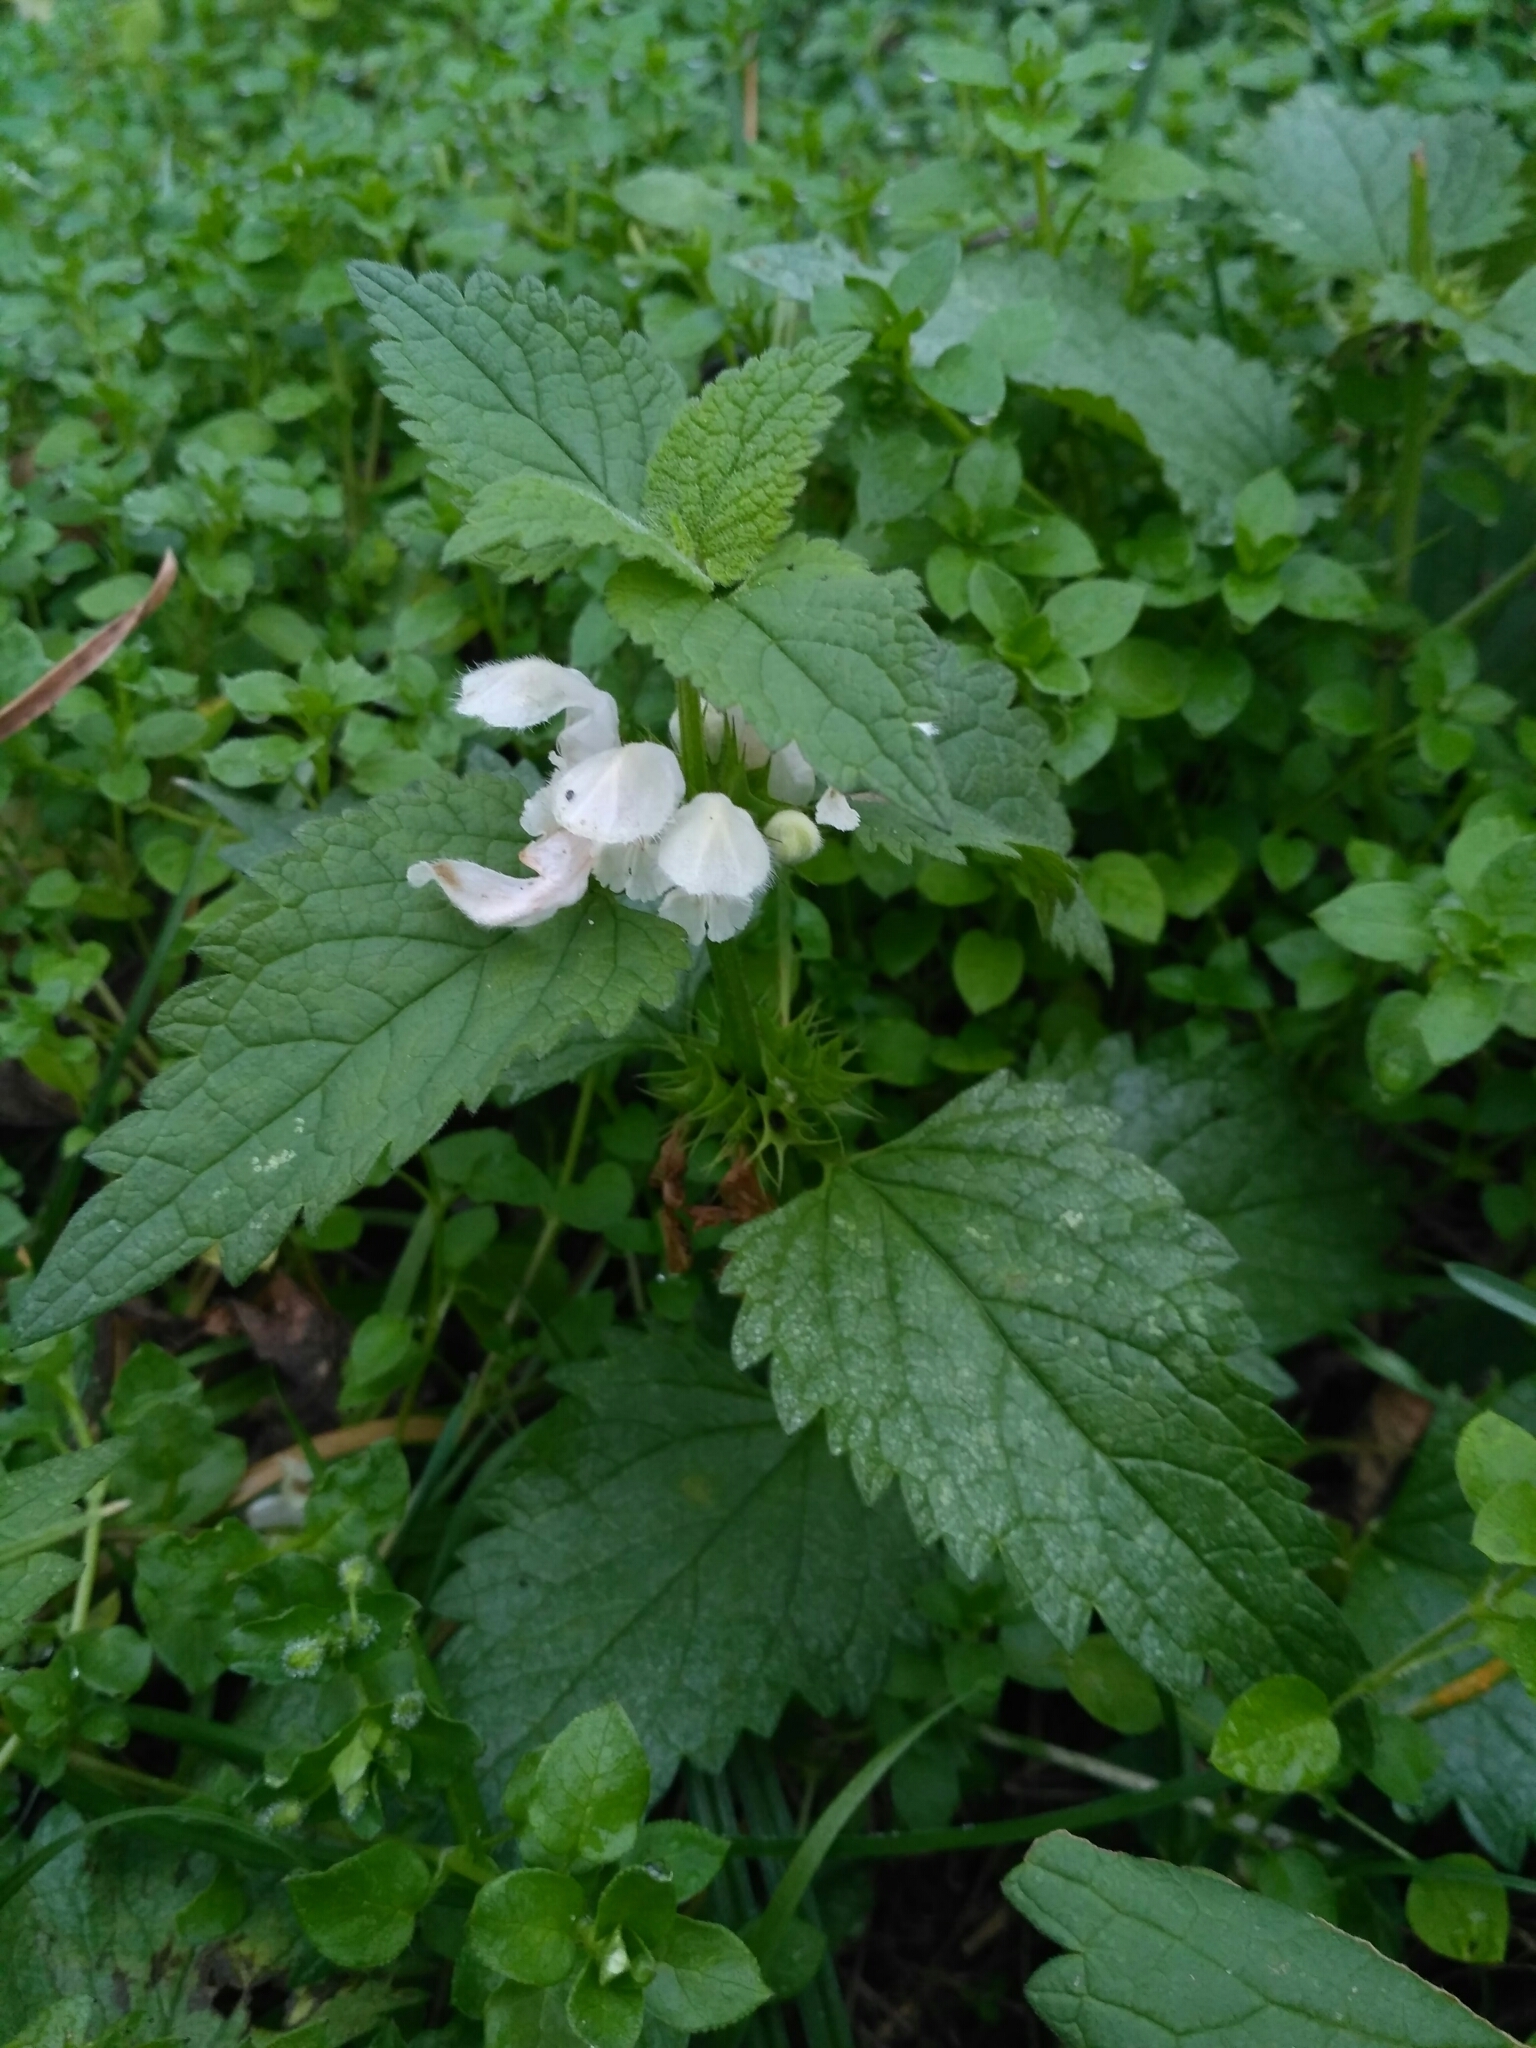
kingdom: Plantae
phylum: Tracheophyta
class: Magnoliopsida
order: Lamiales
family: Lamiaceae
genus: Lamium
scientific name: Lamium album
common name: White dead-nettle
